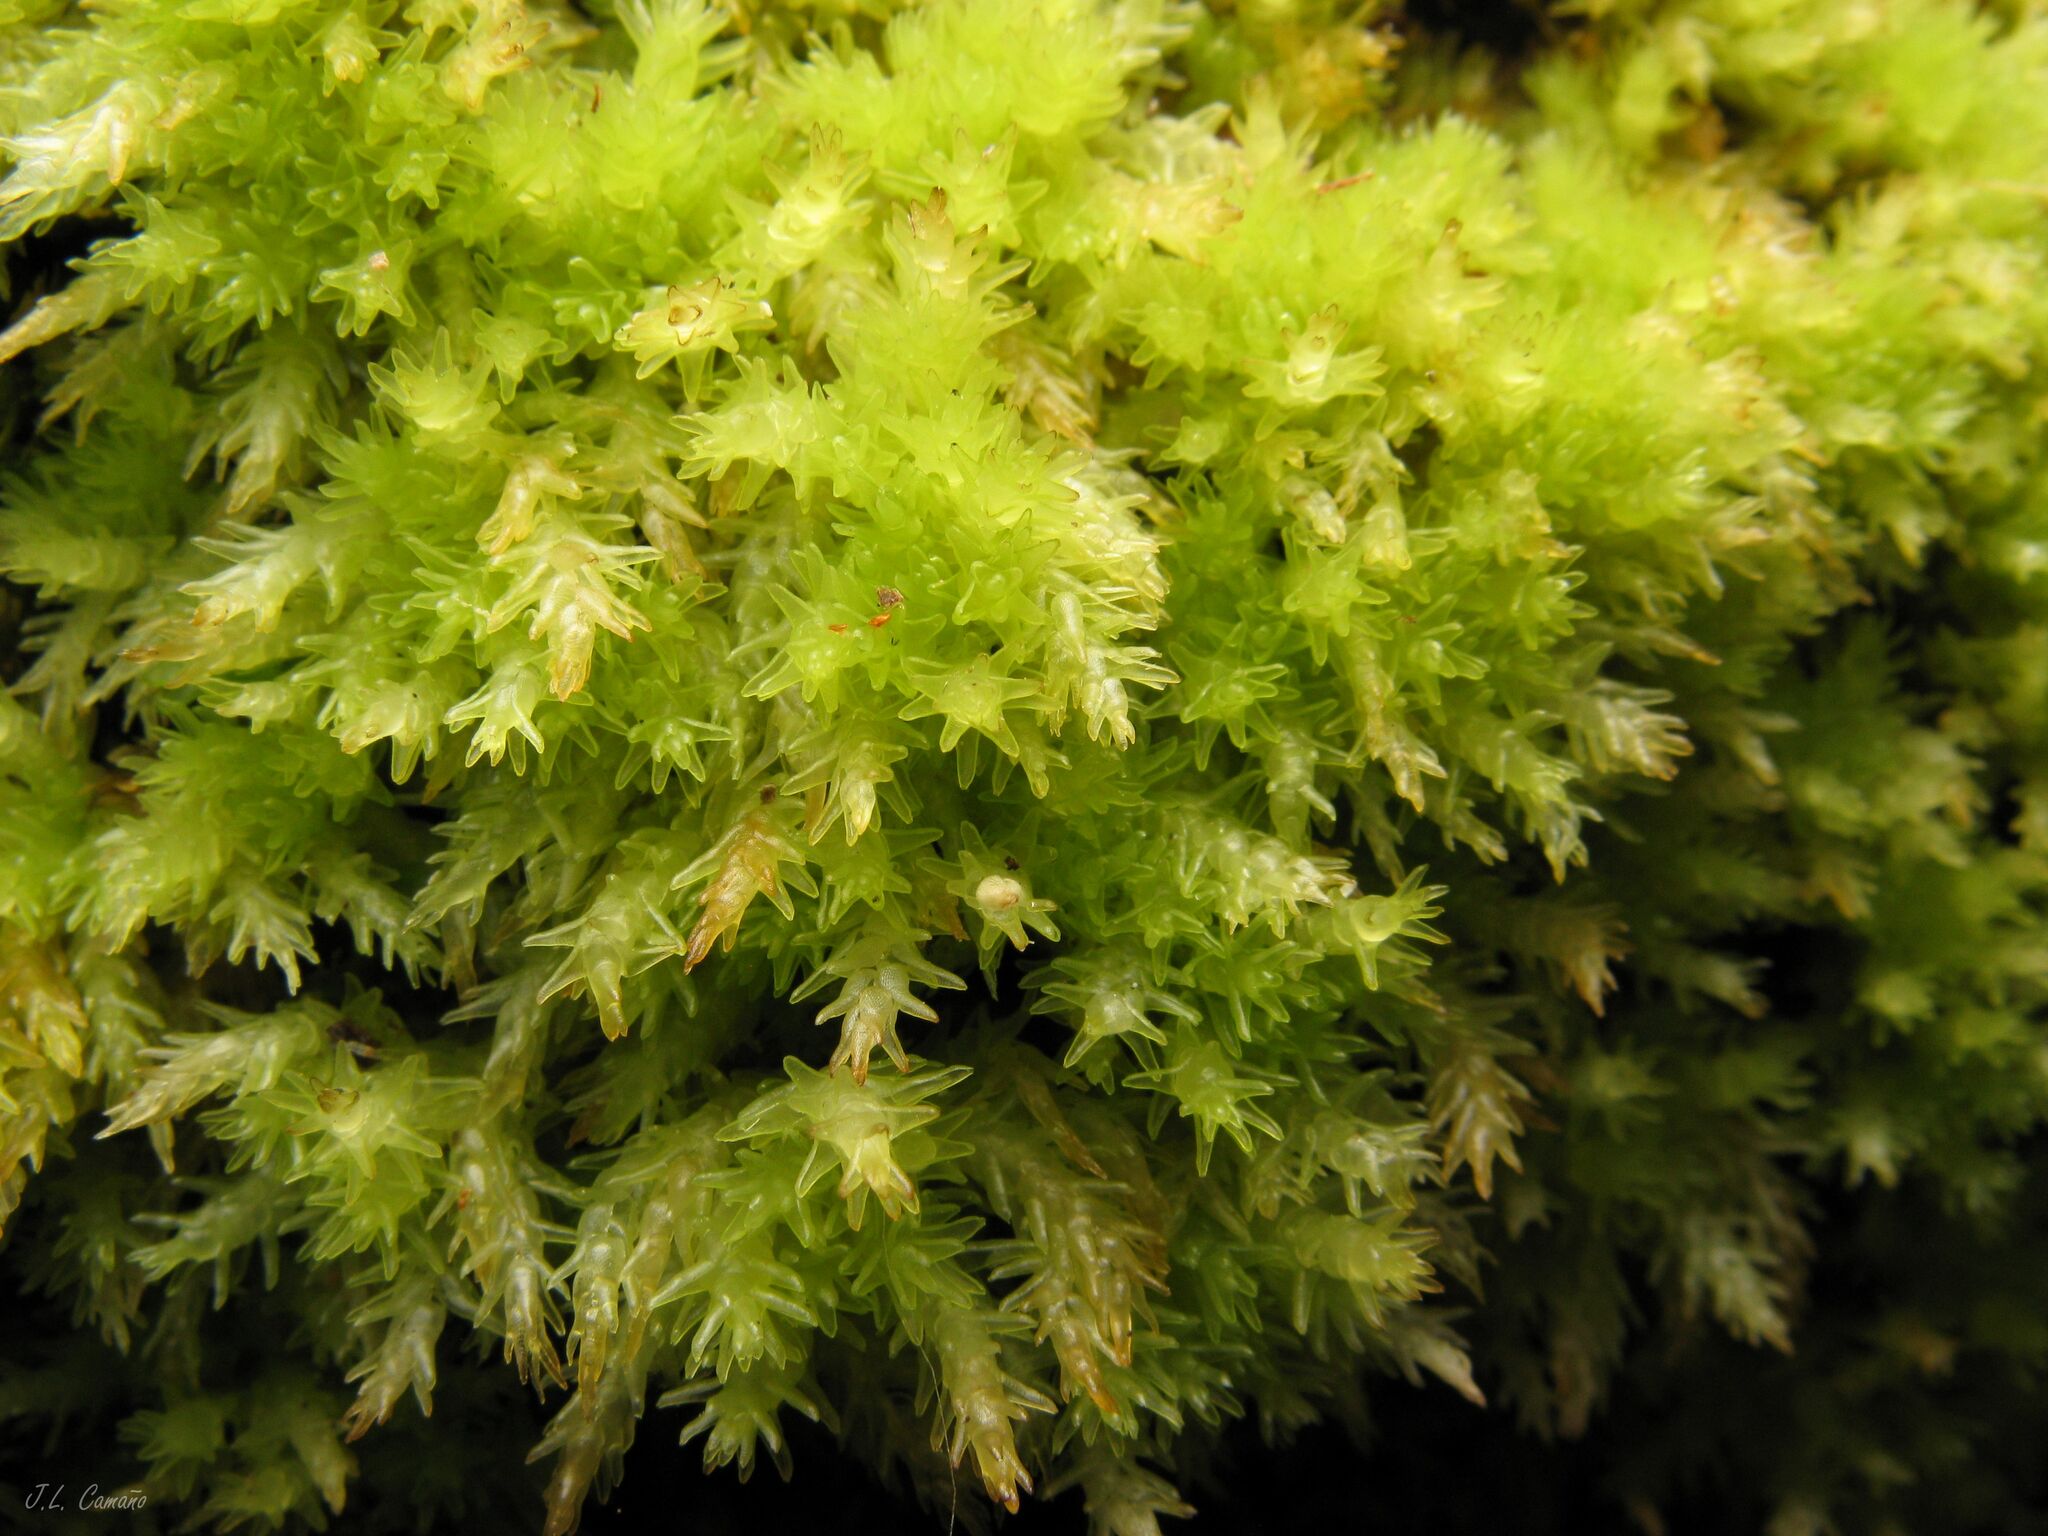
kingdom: Plantae
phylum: Bryophyta
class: Sphagnopsida
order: Sphagnales
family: Sphagnaceae
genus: Sphagnum
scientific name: Sphagnum compactum
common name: Compact peat moss
